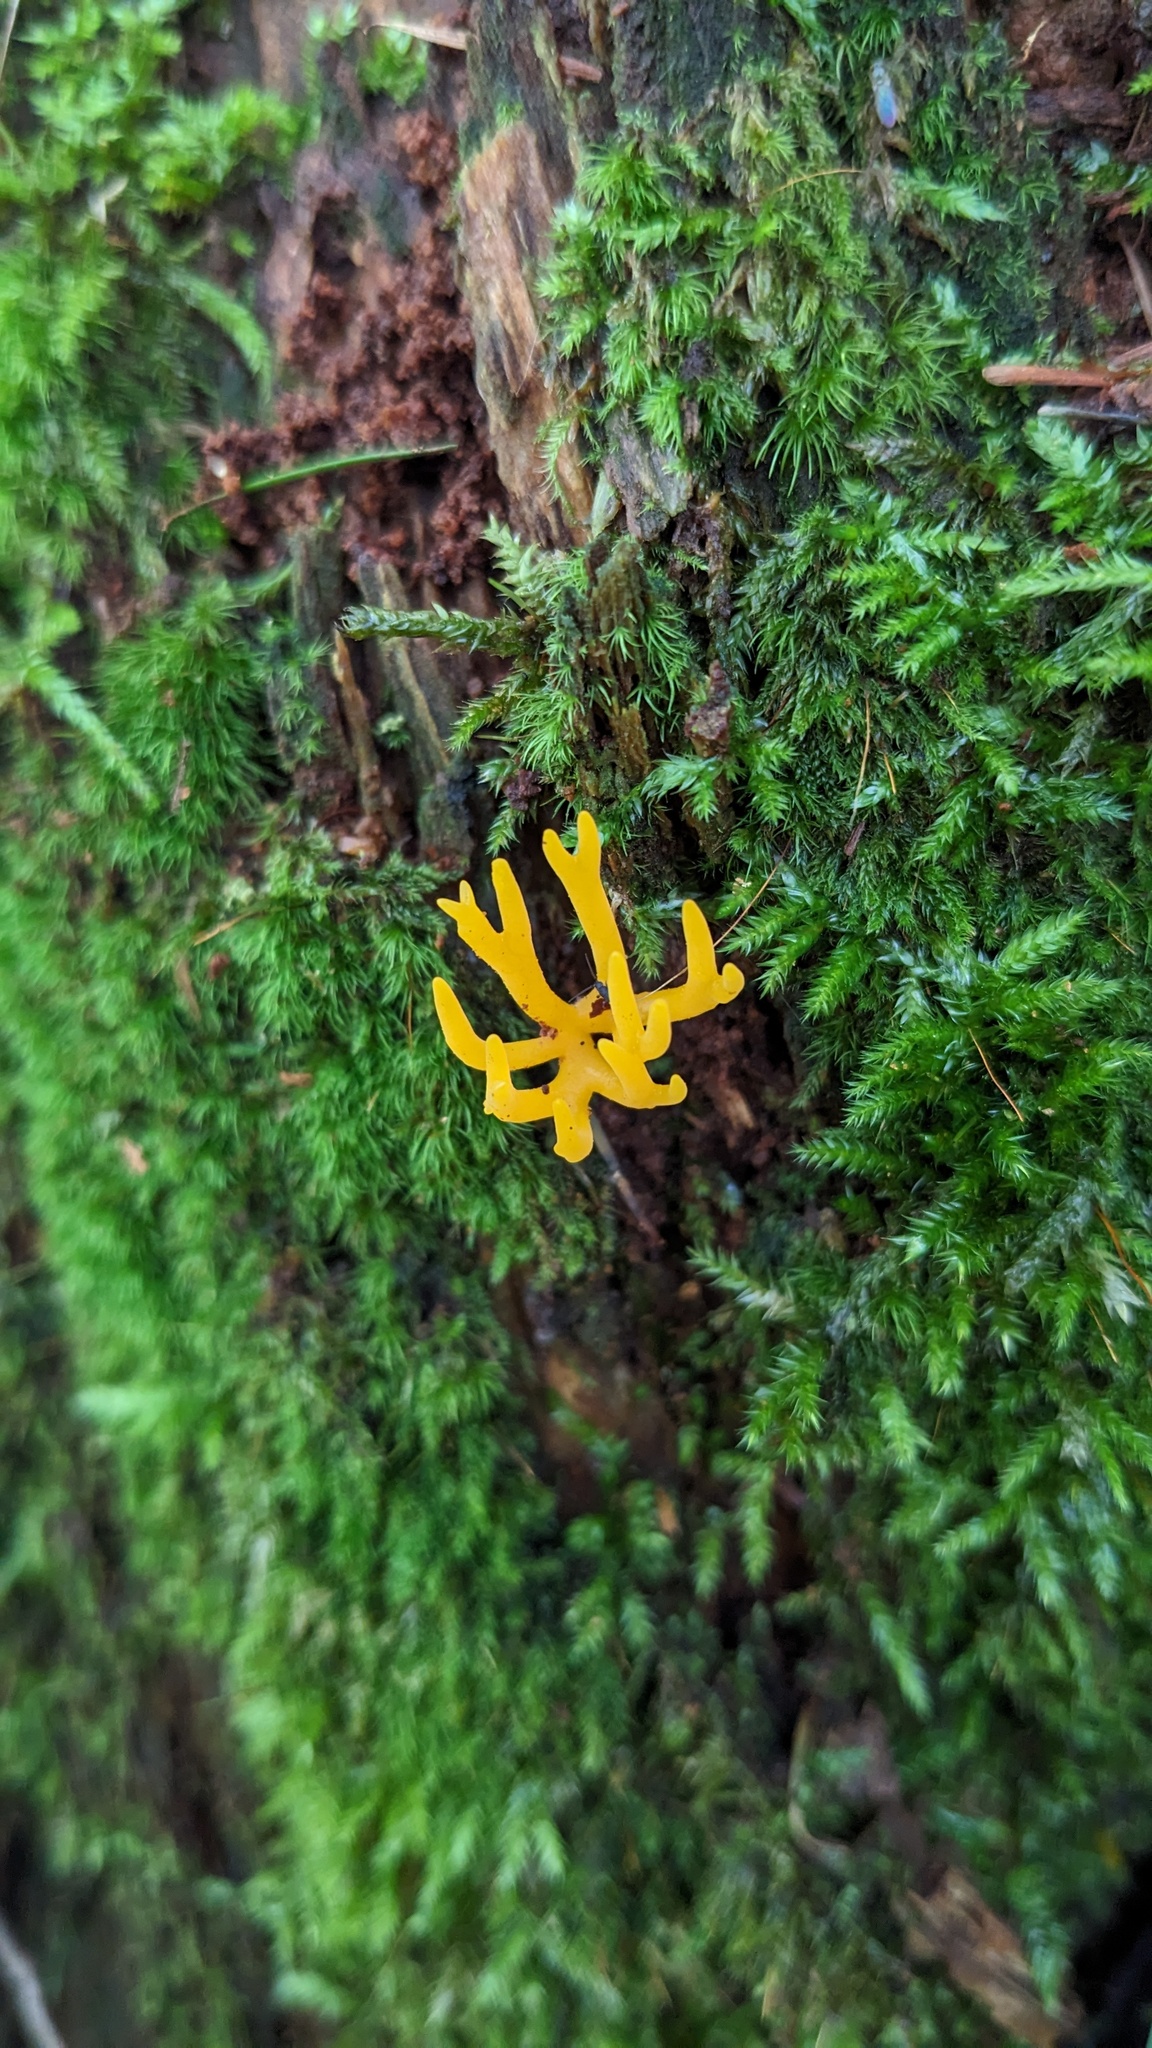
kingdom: Fungi
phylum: Basidiomycota
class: Dacrymycetes
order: Dacrymycetales
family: Dacrymycetaceae
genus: Calocera
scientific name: Calocera viscosa
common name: Yellow stagshorn
